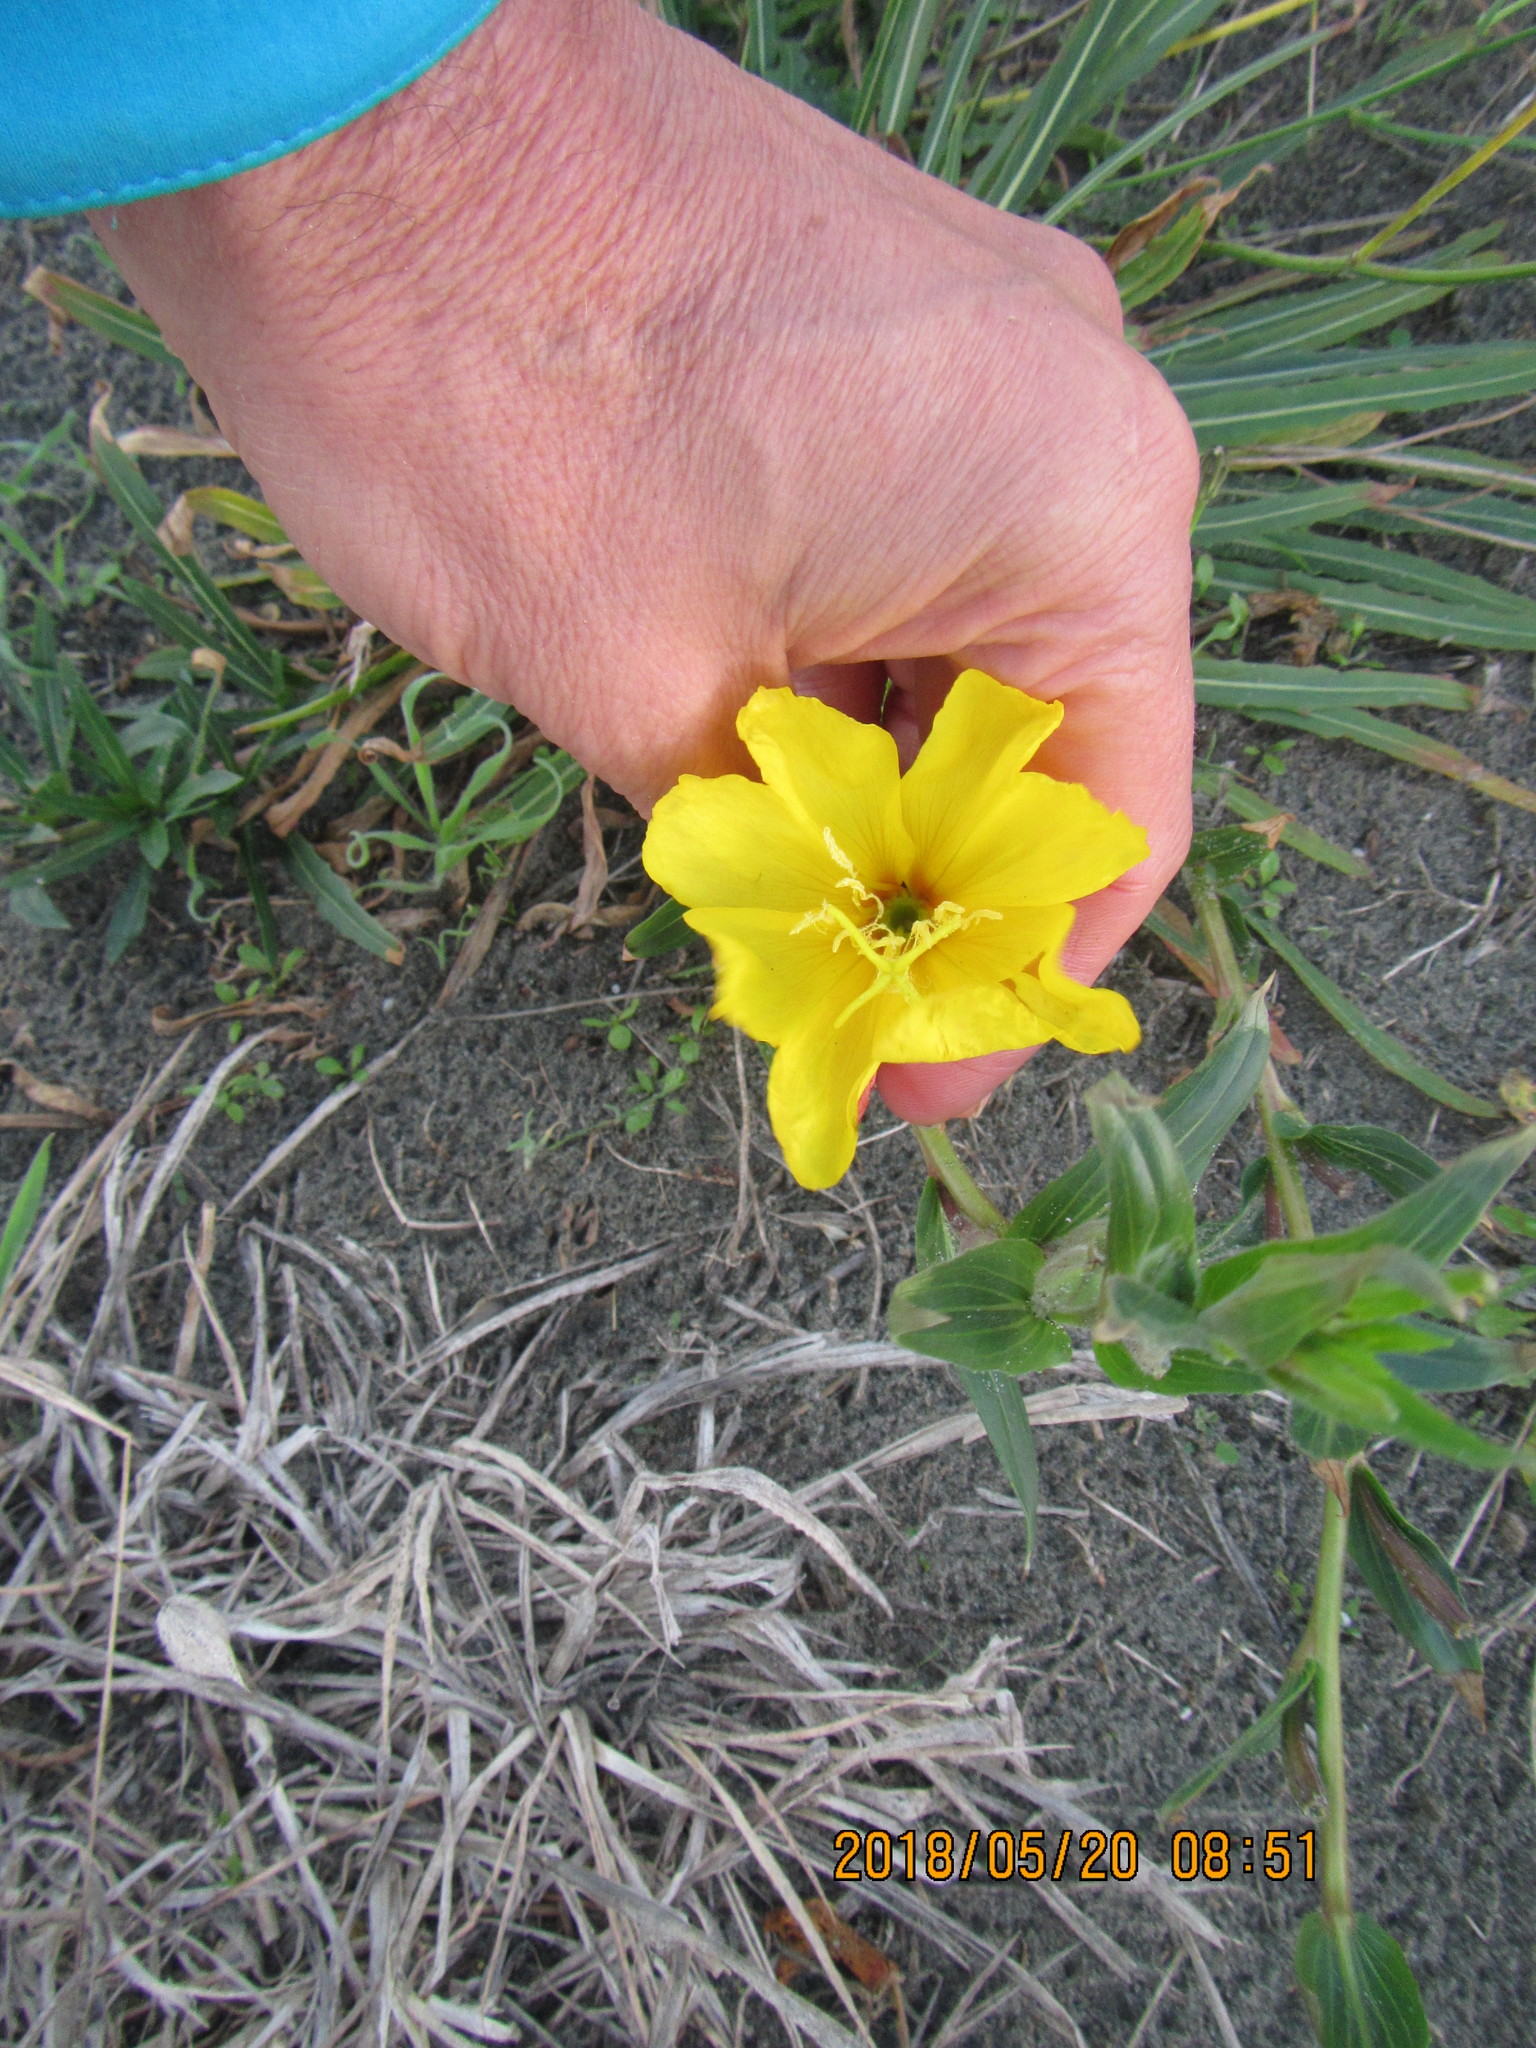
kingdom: Plantae
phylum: Tracheophyta
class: Magnoliopsida
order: Myrtales
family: Onagraceae
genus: Oenothera
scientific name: Oenothera drummondii
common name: Beach evening-primrose
